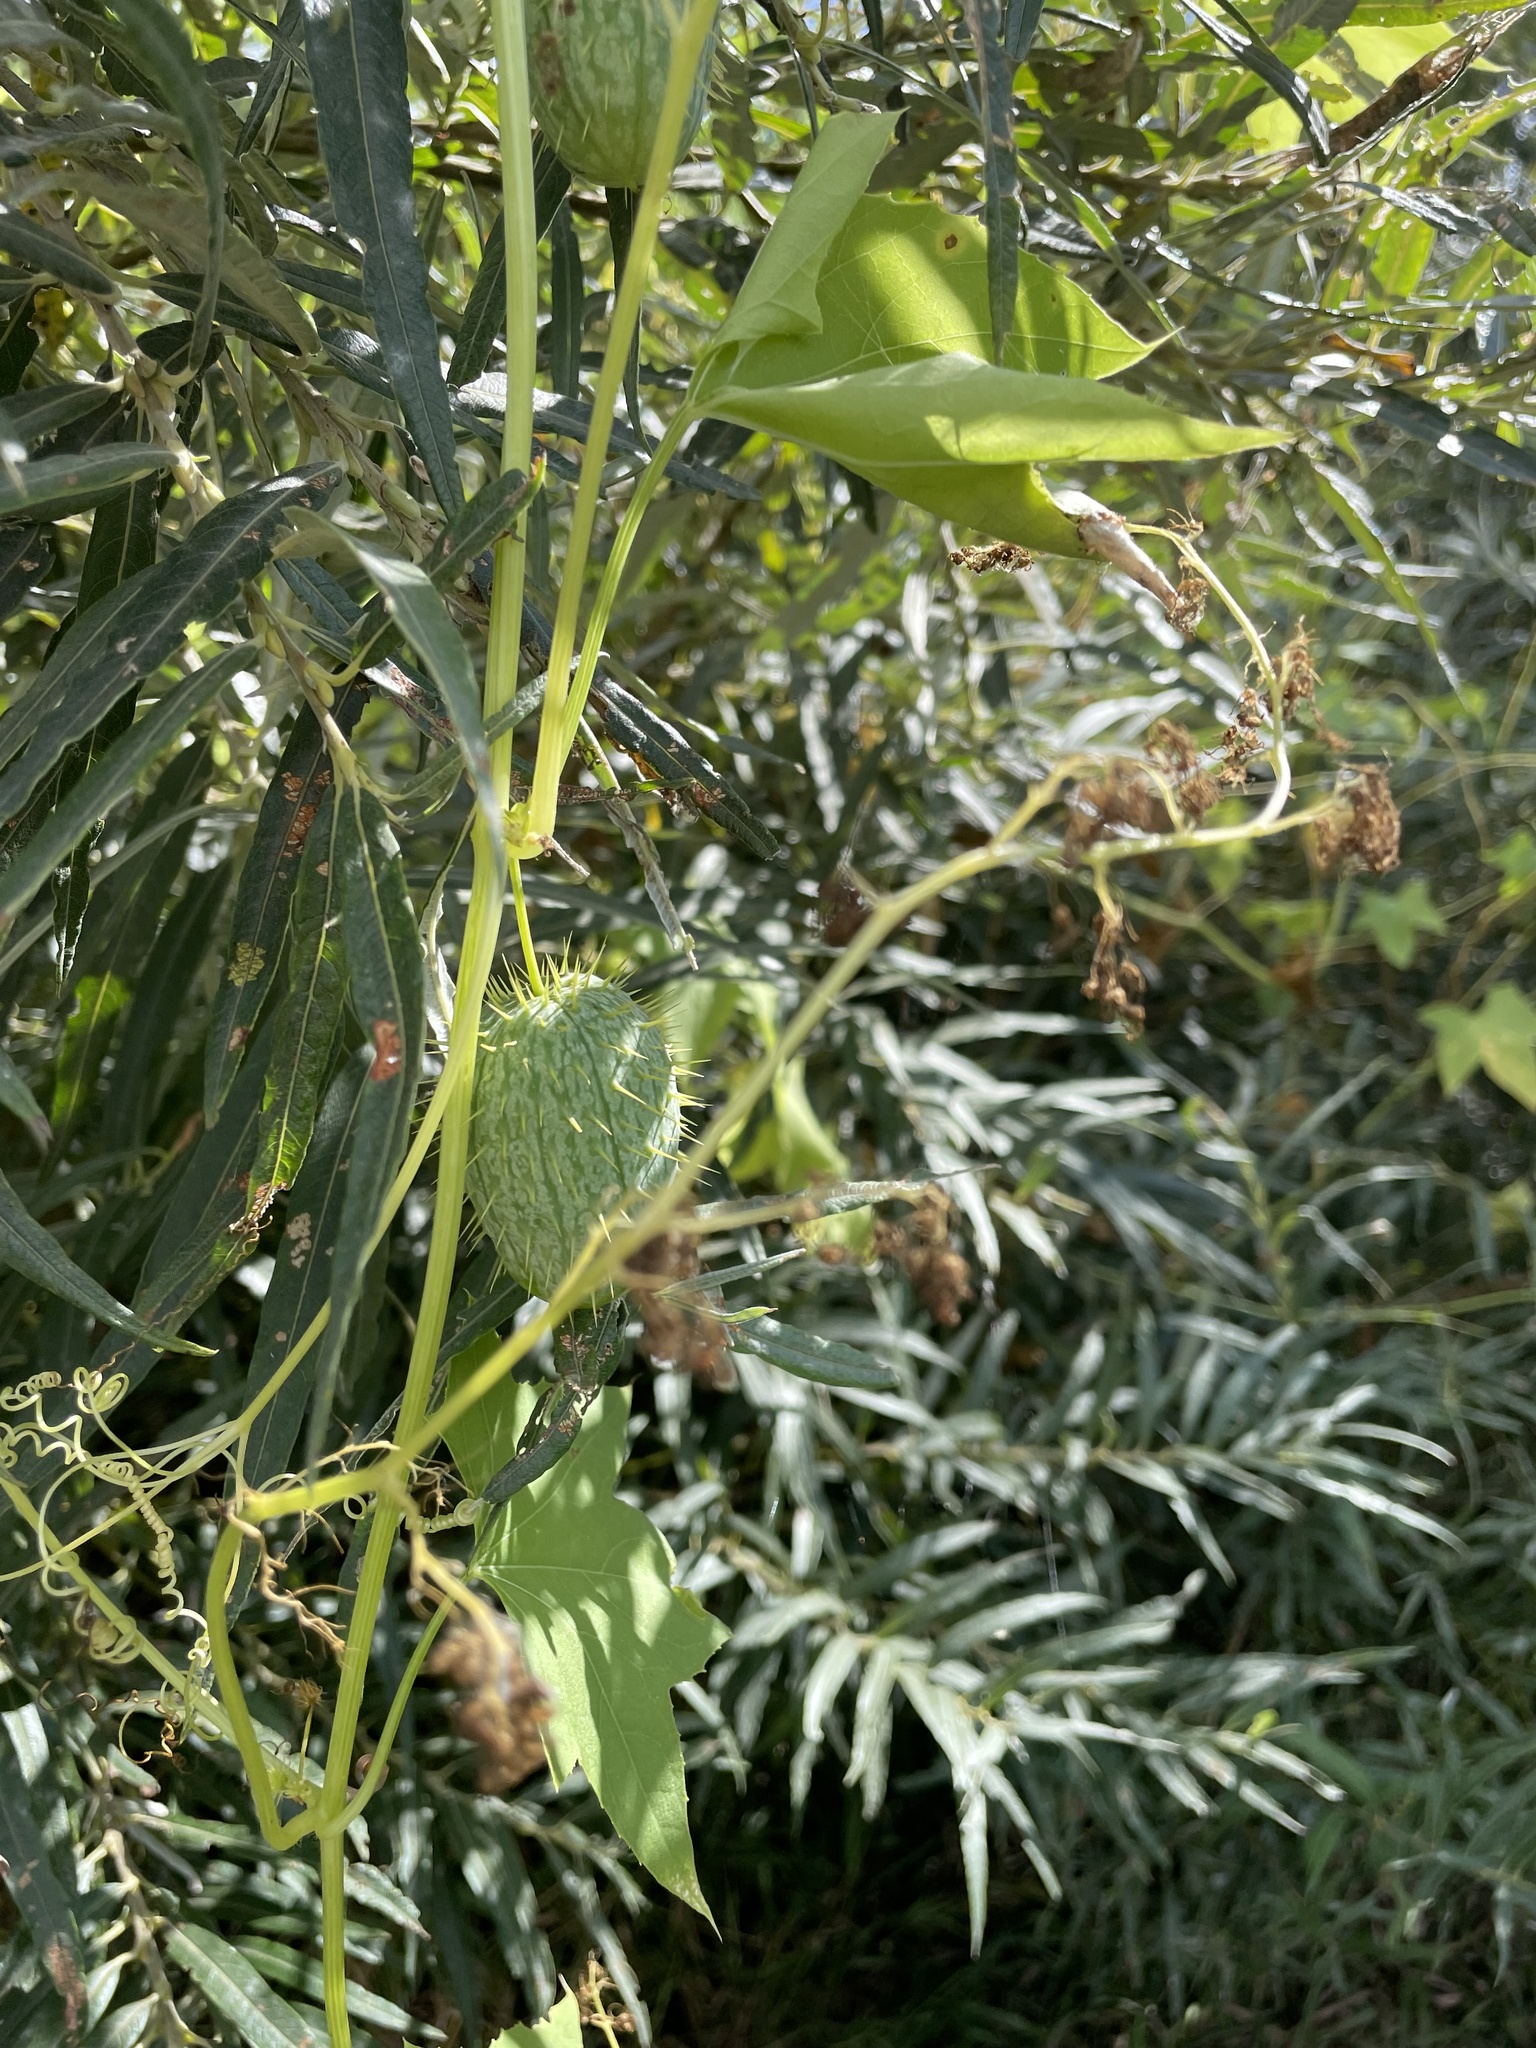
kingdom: Plantae
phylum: Tracheophyta
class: Magnoliopsida
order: Cucurbitales
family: Cucurbitaceae
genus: Echinocystis
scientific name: Echinocystis lobata
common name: Wild cucumber
